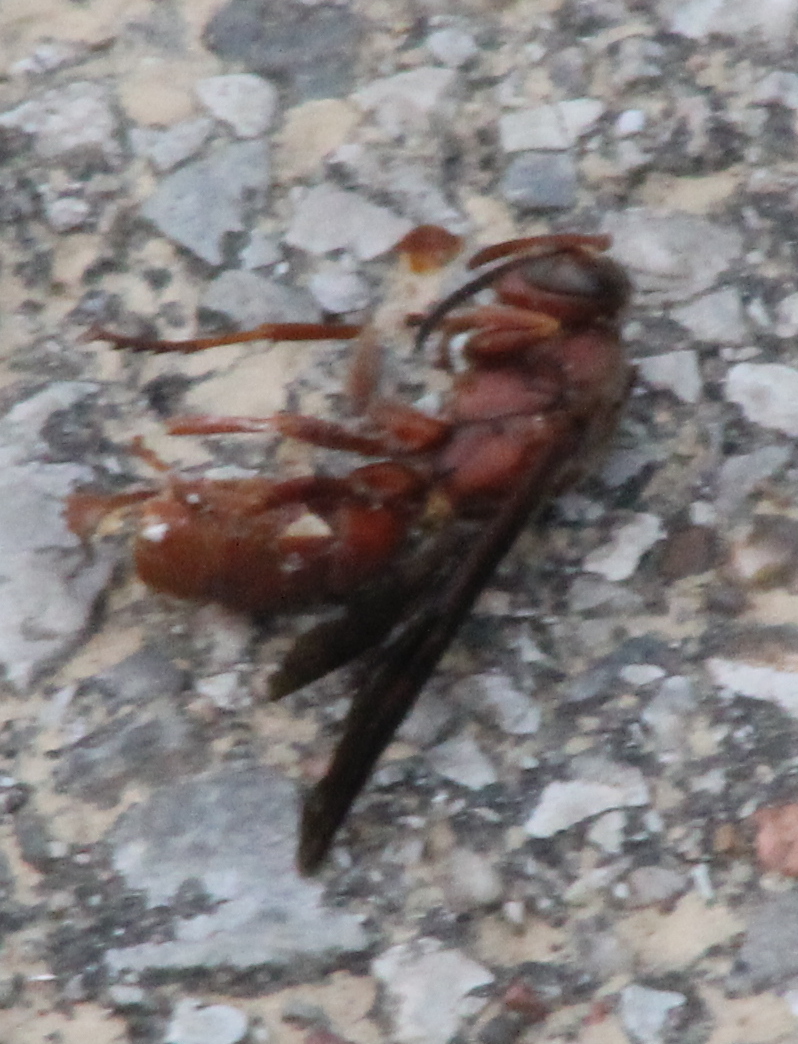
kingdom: Animalia
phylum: Arthropoda
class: Insecta
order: Hymenoptera
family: Vespidae
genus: Fuscopolistes
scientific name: Fuscopolistes
